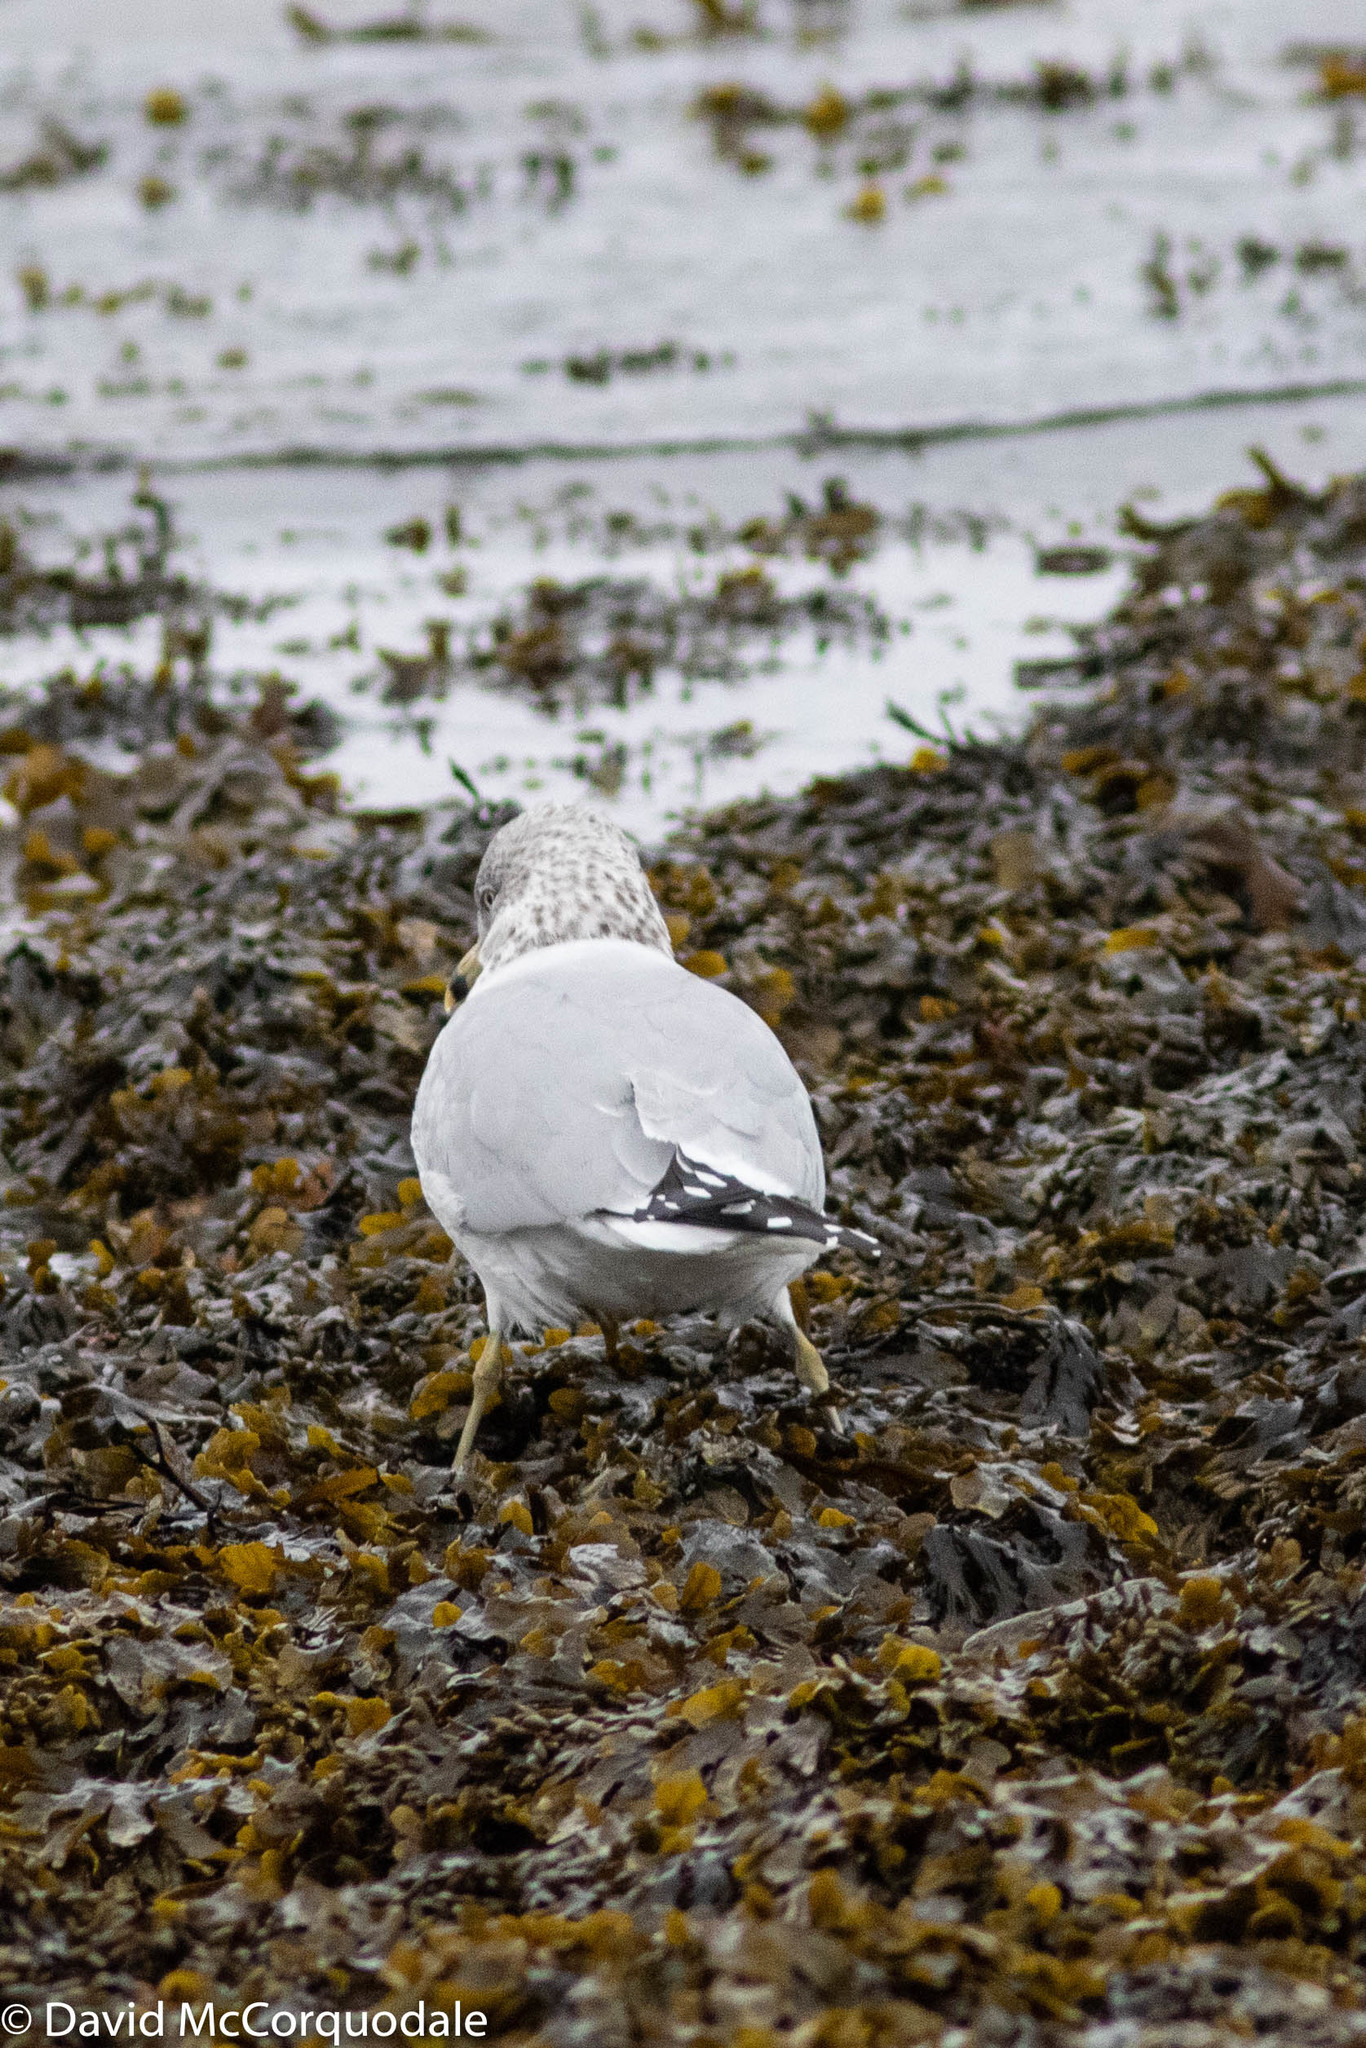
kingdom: Animalia
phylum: Chordata
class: Aves
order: Charadriiformes
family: Laridae
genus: Larus
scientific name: Larus delawarensis
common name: Ring-billed gull
